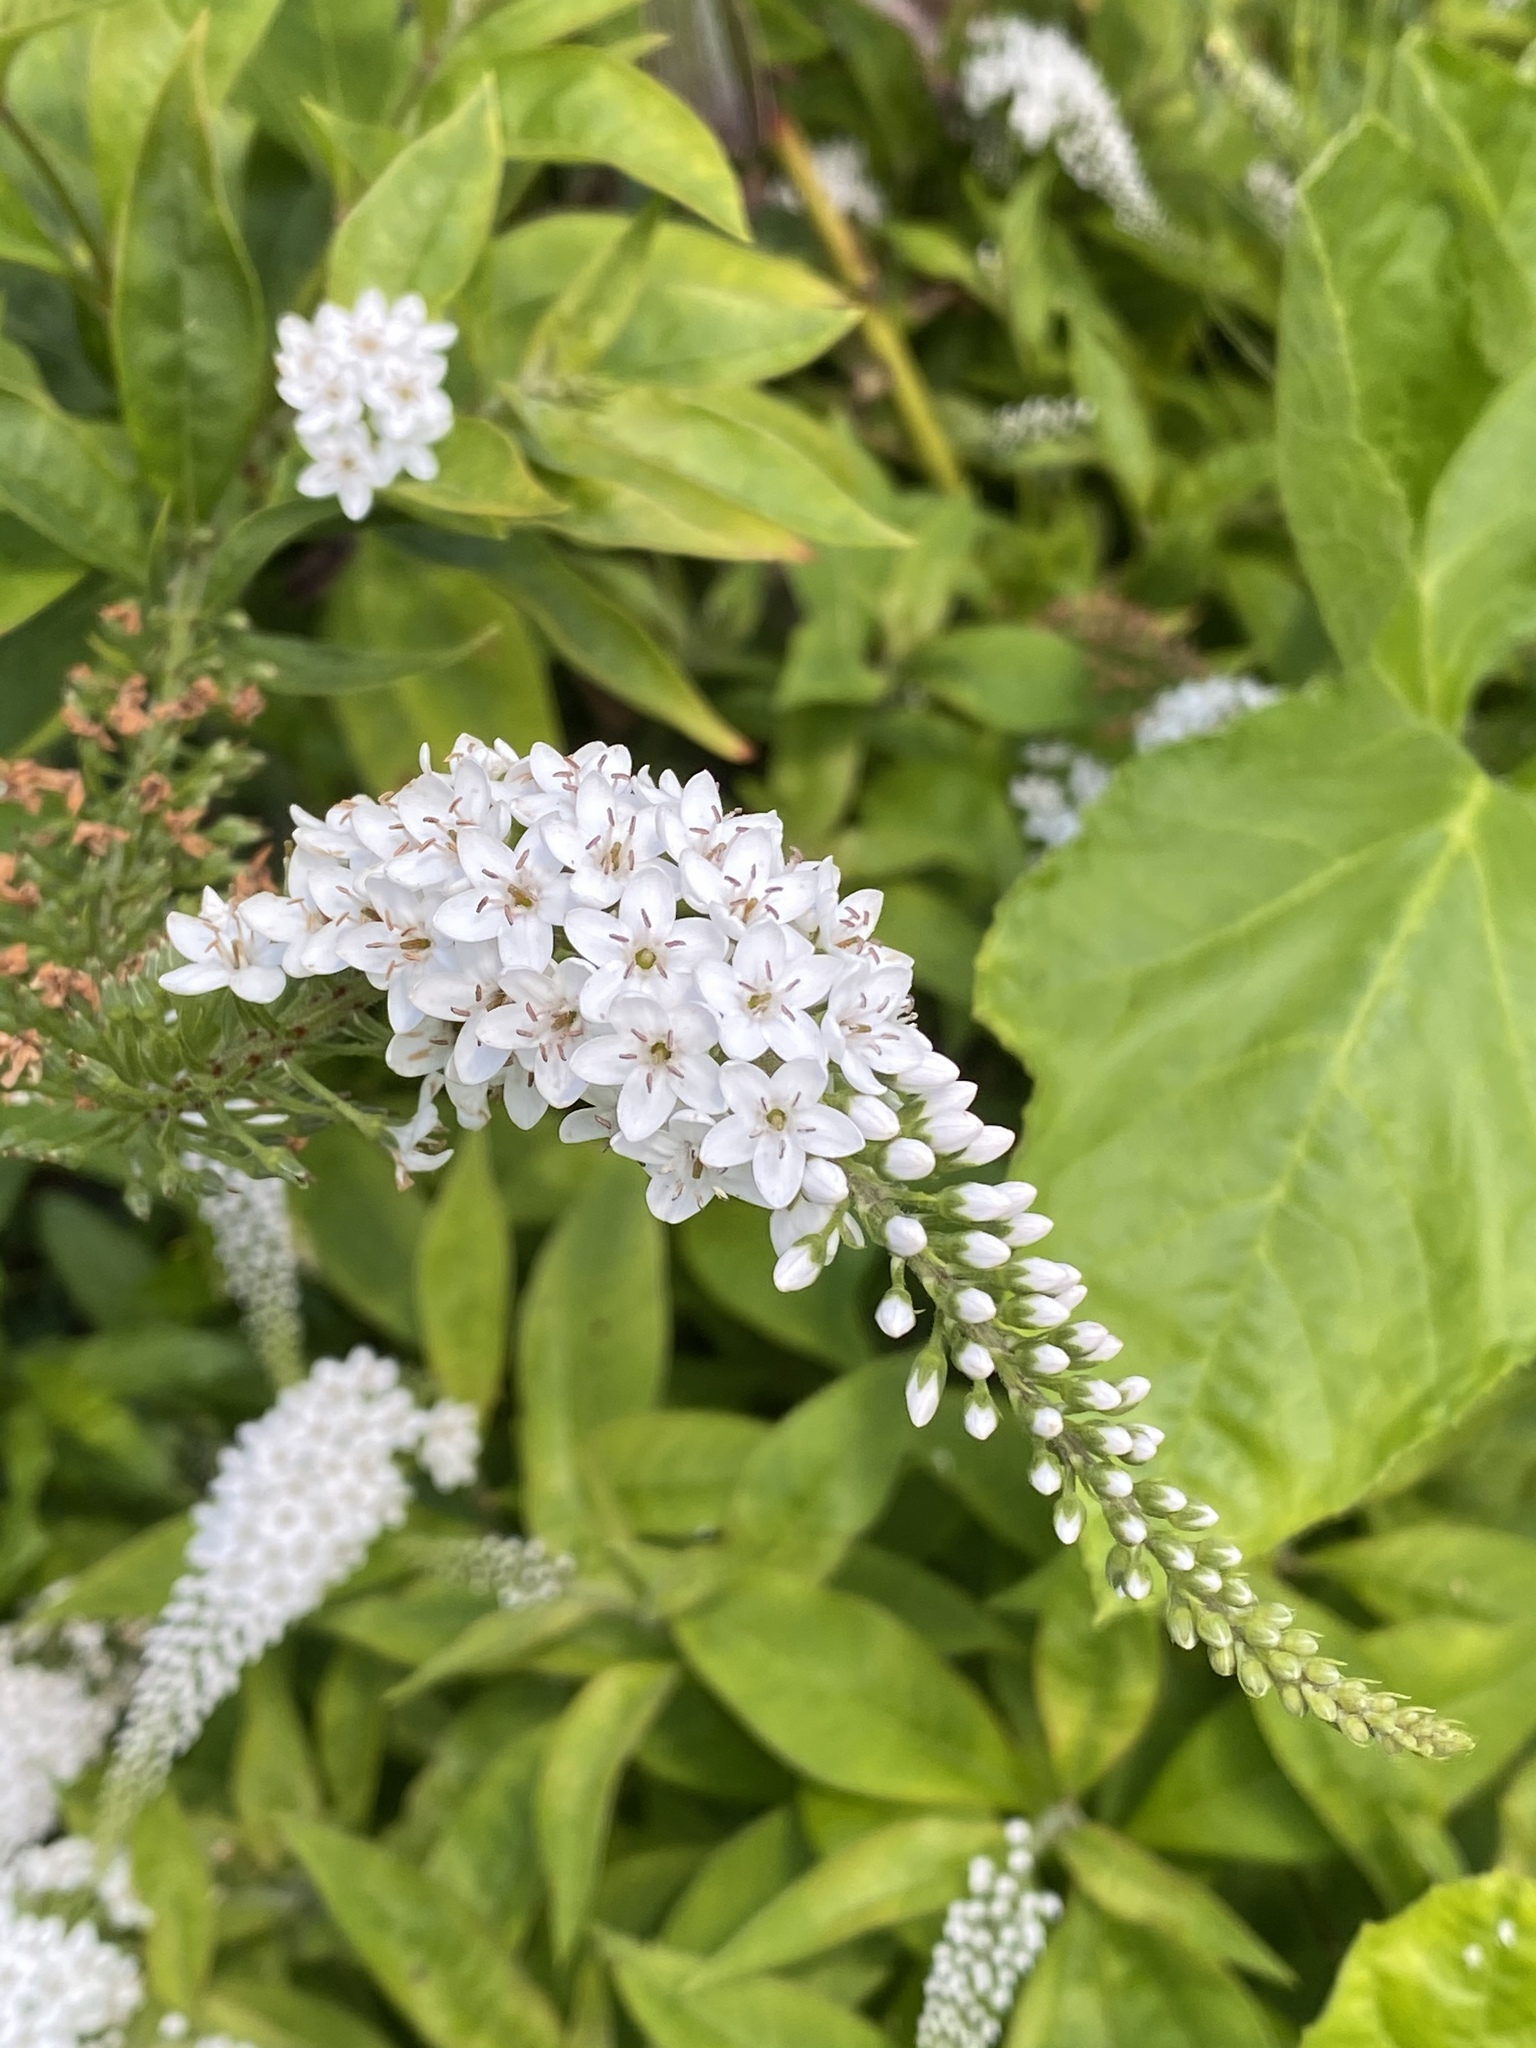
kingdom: Plantae
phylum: Tracheophyta
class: Magnoliopsida
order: Ericales
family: Primulaceae
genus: Lysimachia
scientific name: Lysimachia clethroides
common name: Gooseneck loosestrife
